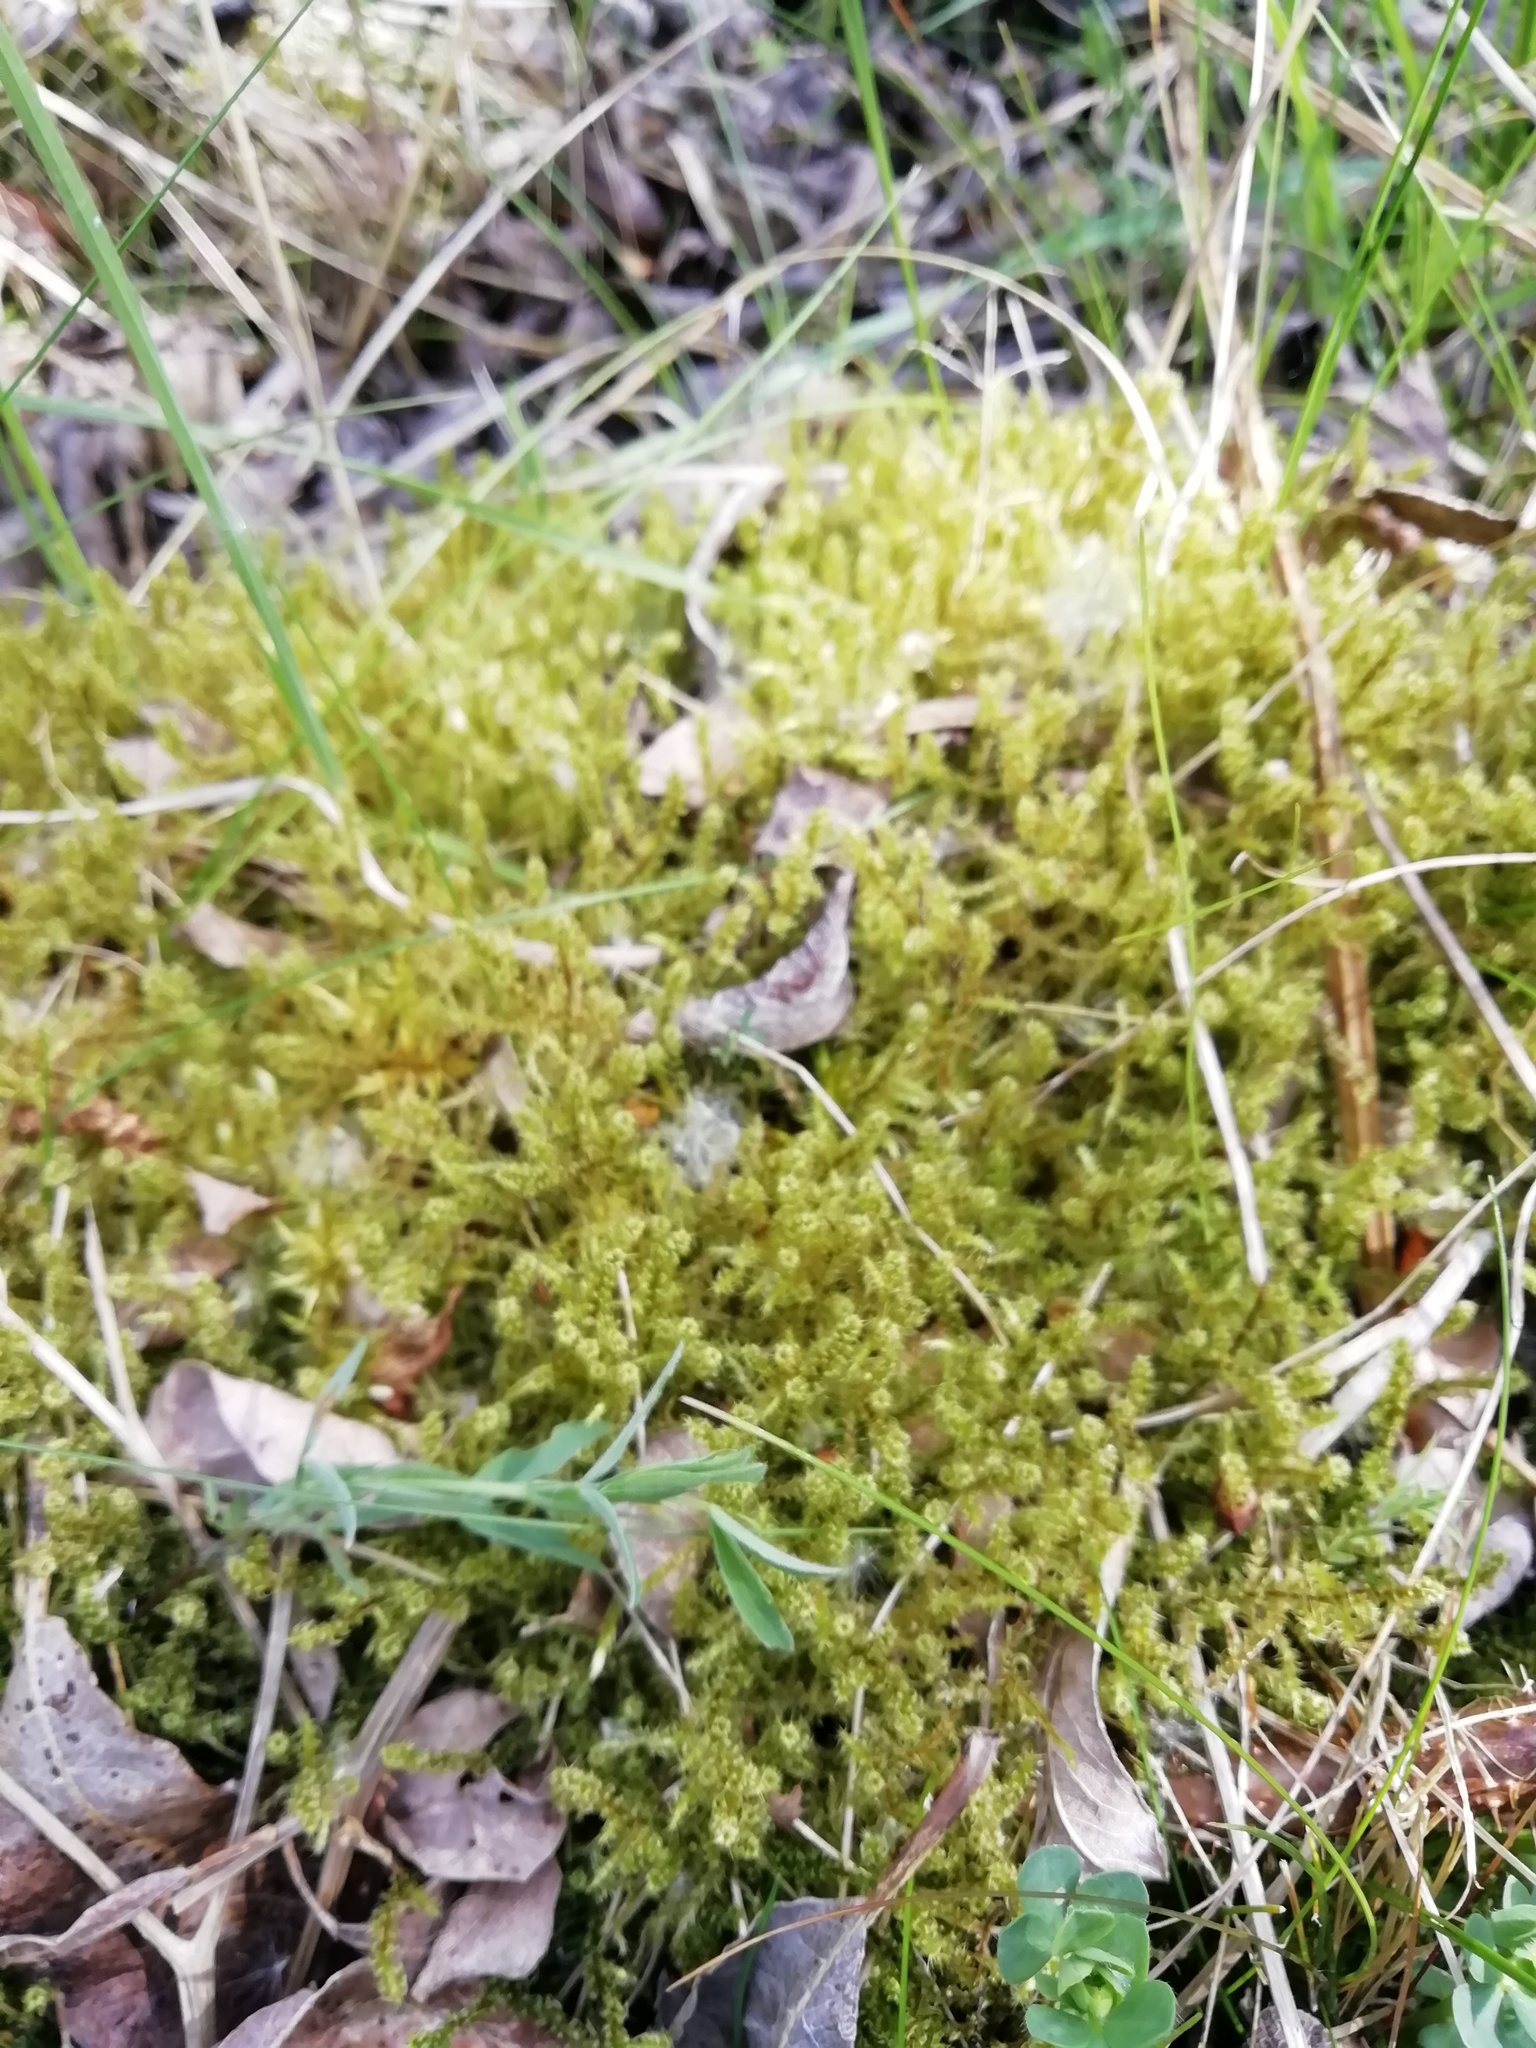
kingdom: Plantae
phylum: Bryophyta
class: Bryopsida
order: Hypnales
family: Hylocomiaceae
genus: Rhytidiadelphus
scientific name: Rhytidiadelphus squarrosus
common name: Springy turf-moss
